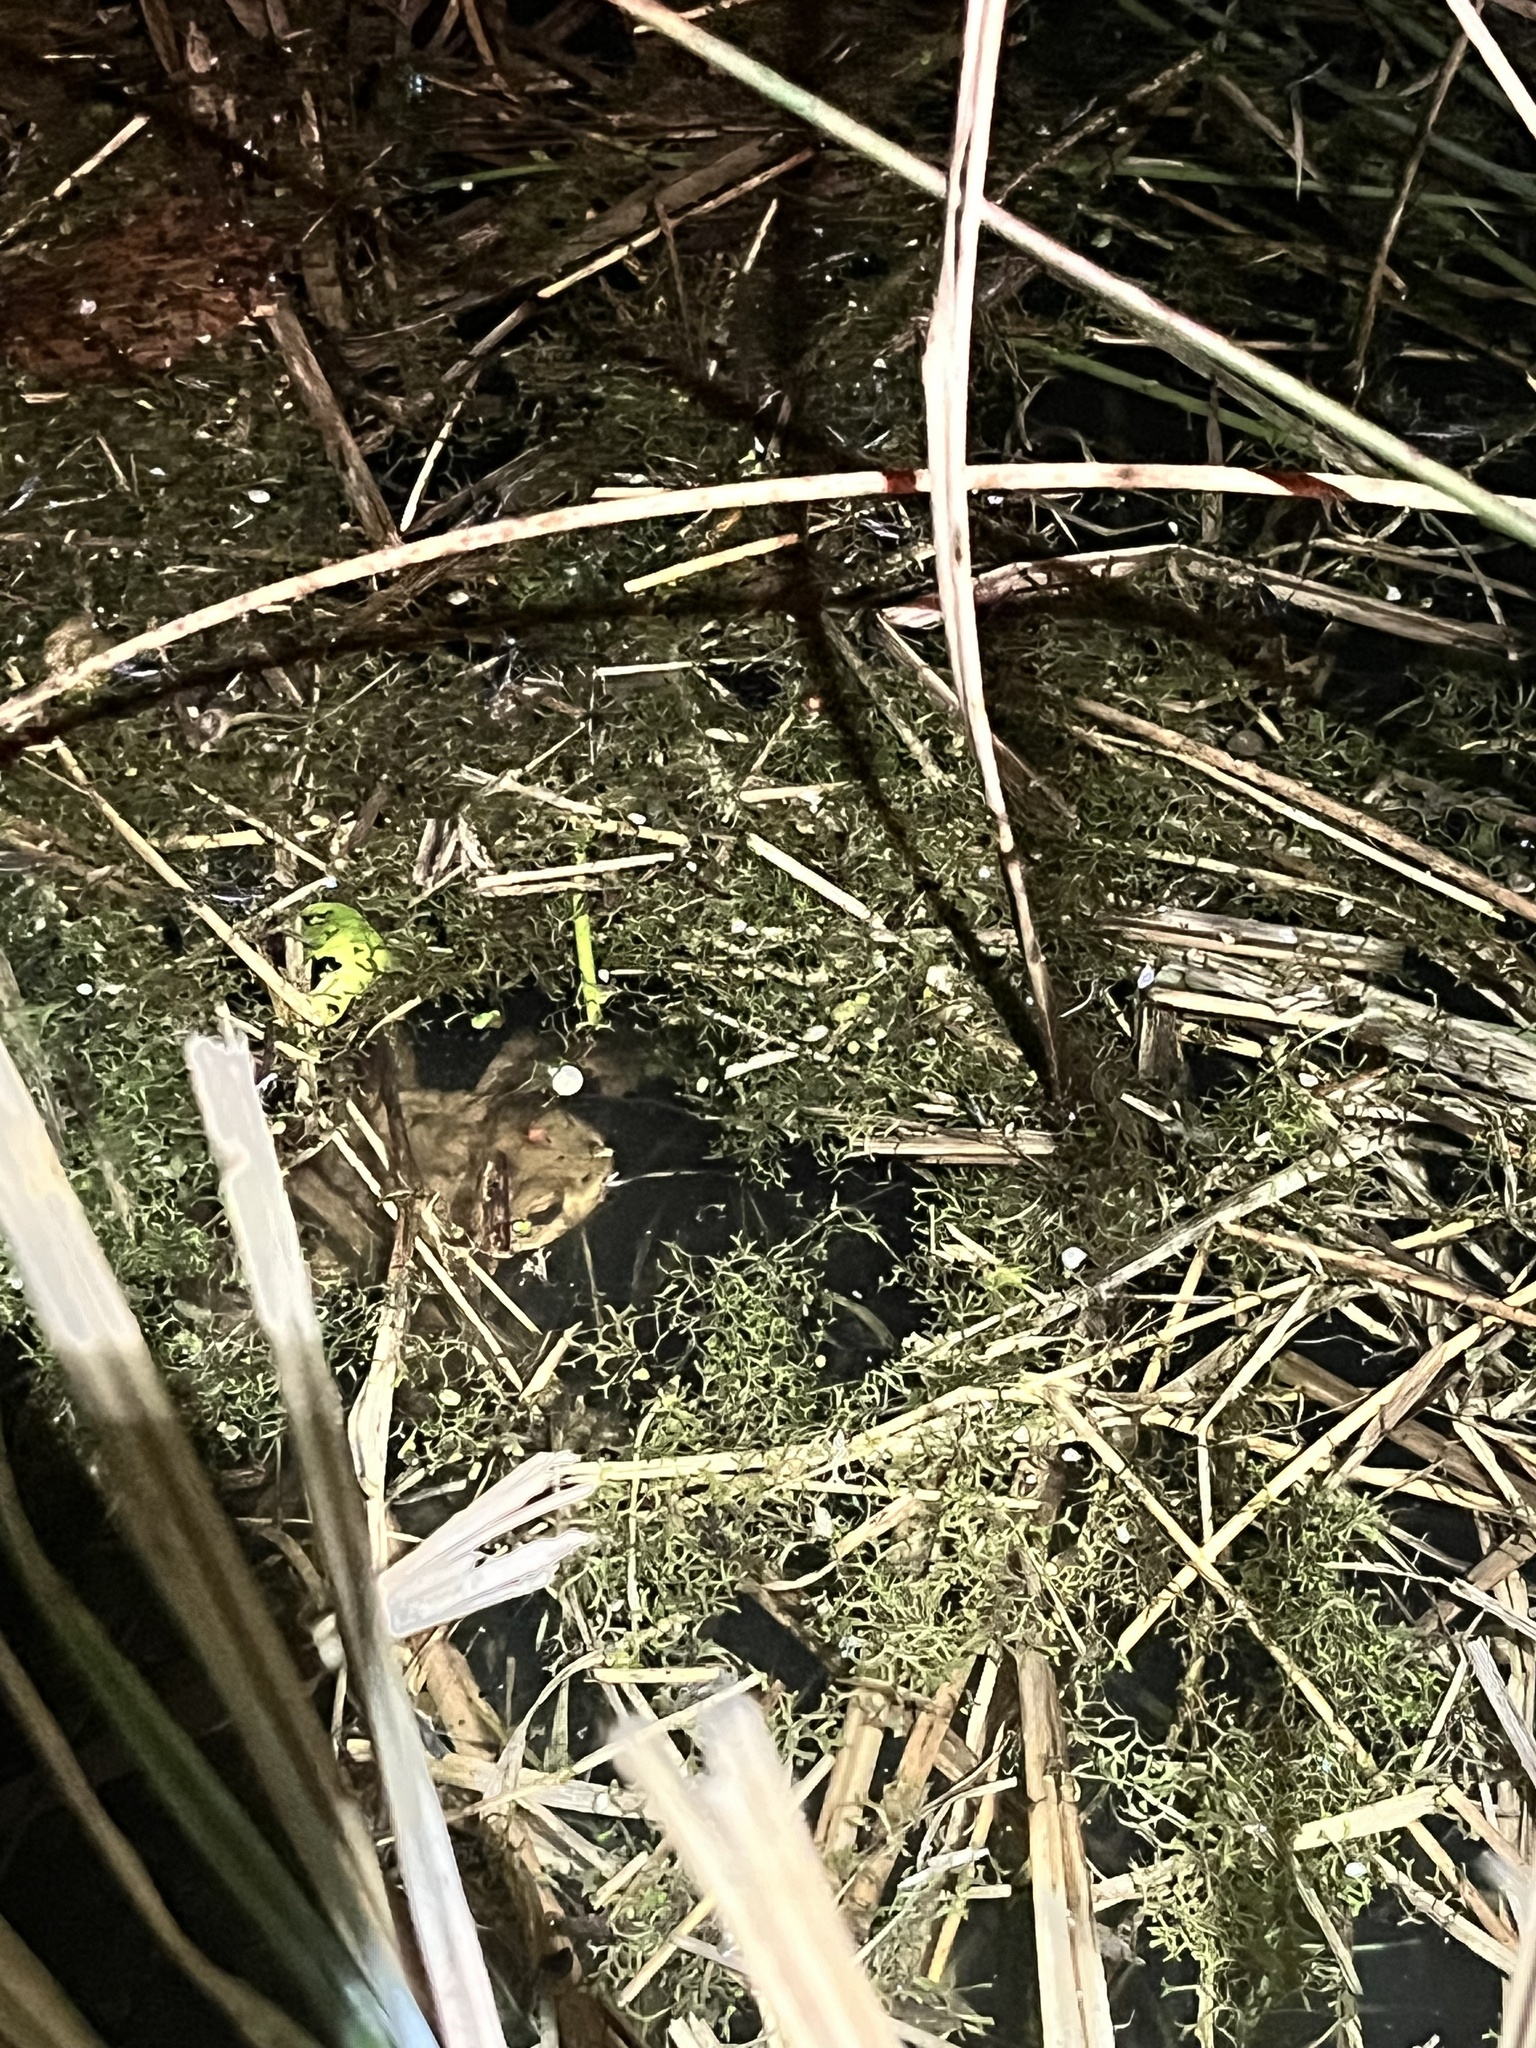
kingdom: Animalia
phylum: Chordata
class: Amphibia
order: Anura
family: Bufonidae
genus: Bufo
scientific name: Bufo bufo
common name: Common toad
